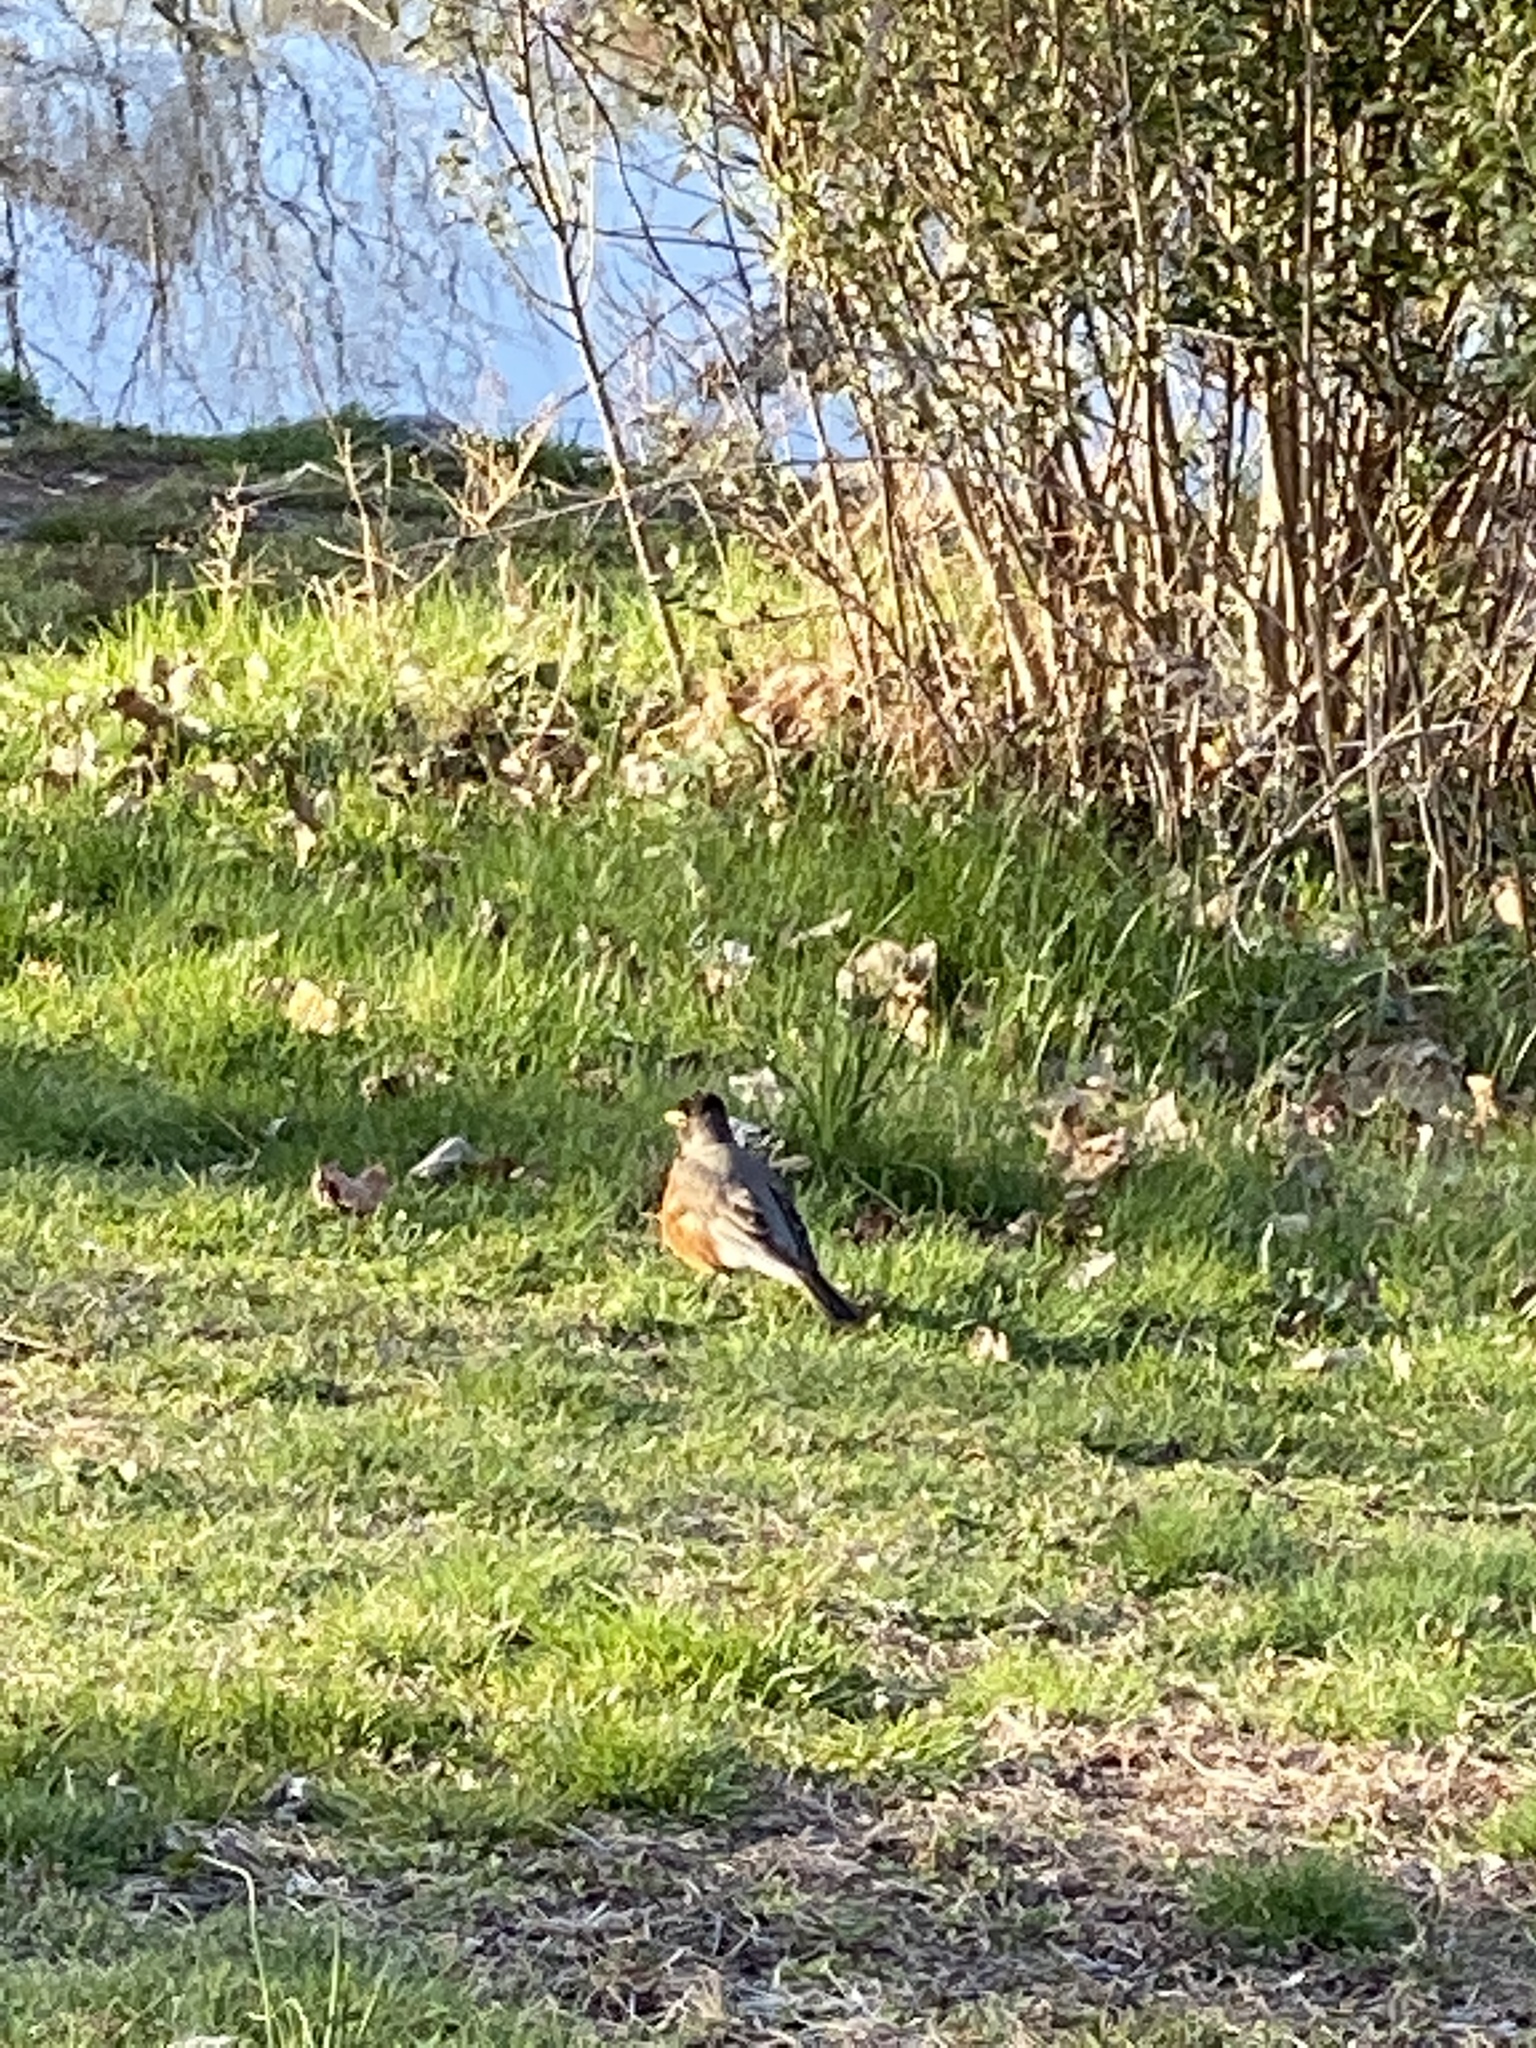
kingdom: Animalia
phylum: Chordata
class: Aves
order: Passeriformes
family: Turdidae
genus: Turdus
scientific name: Turdus migratorius
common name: American robin
